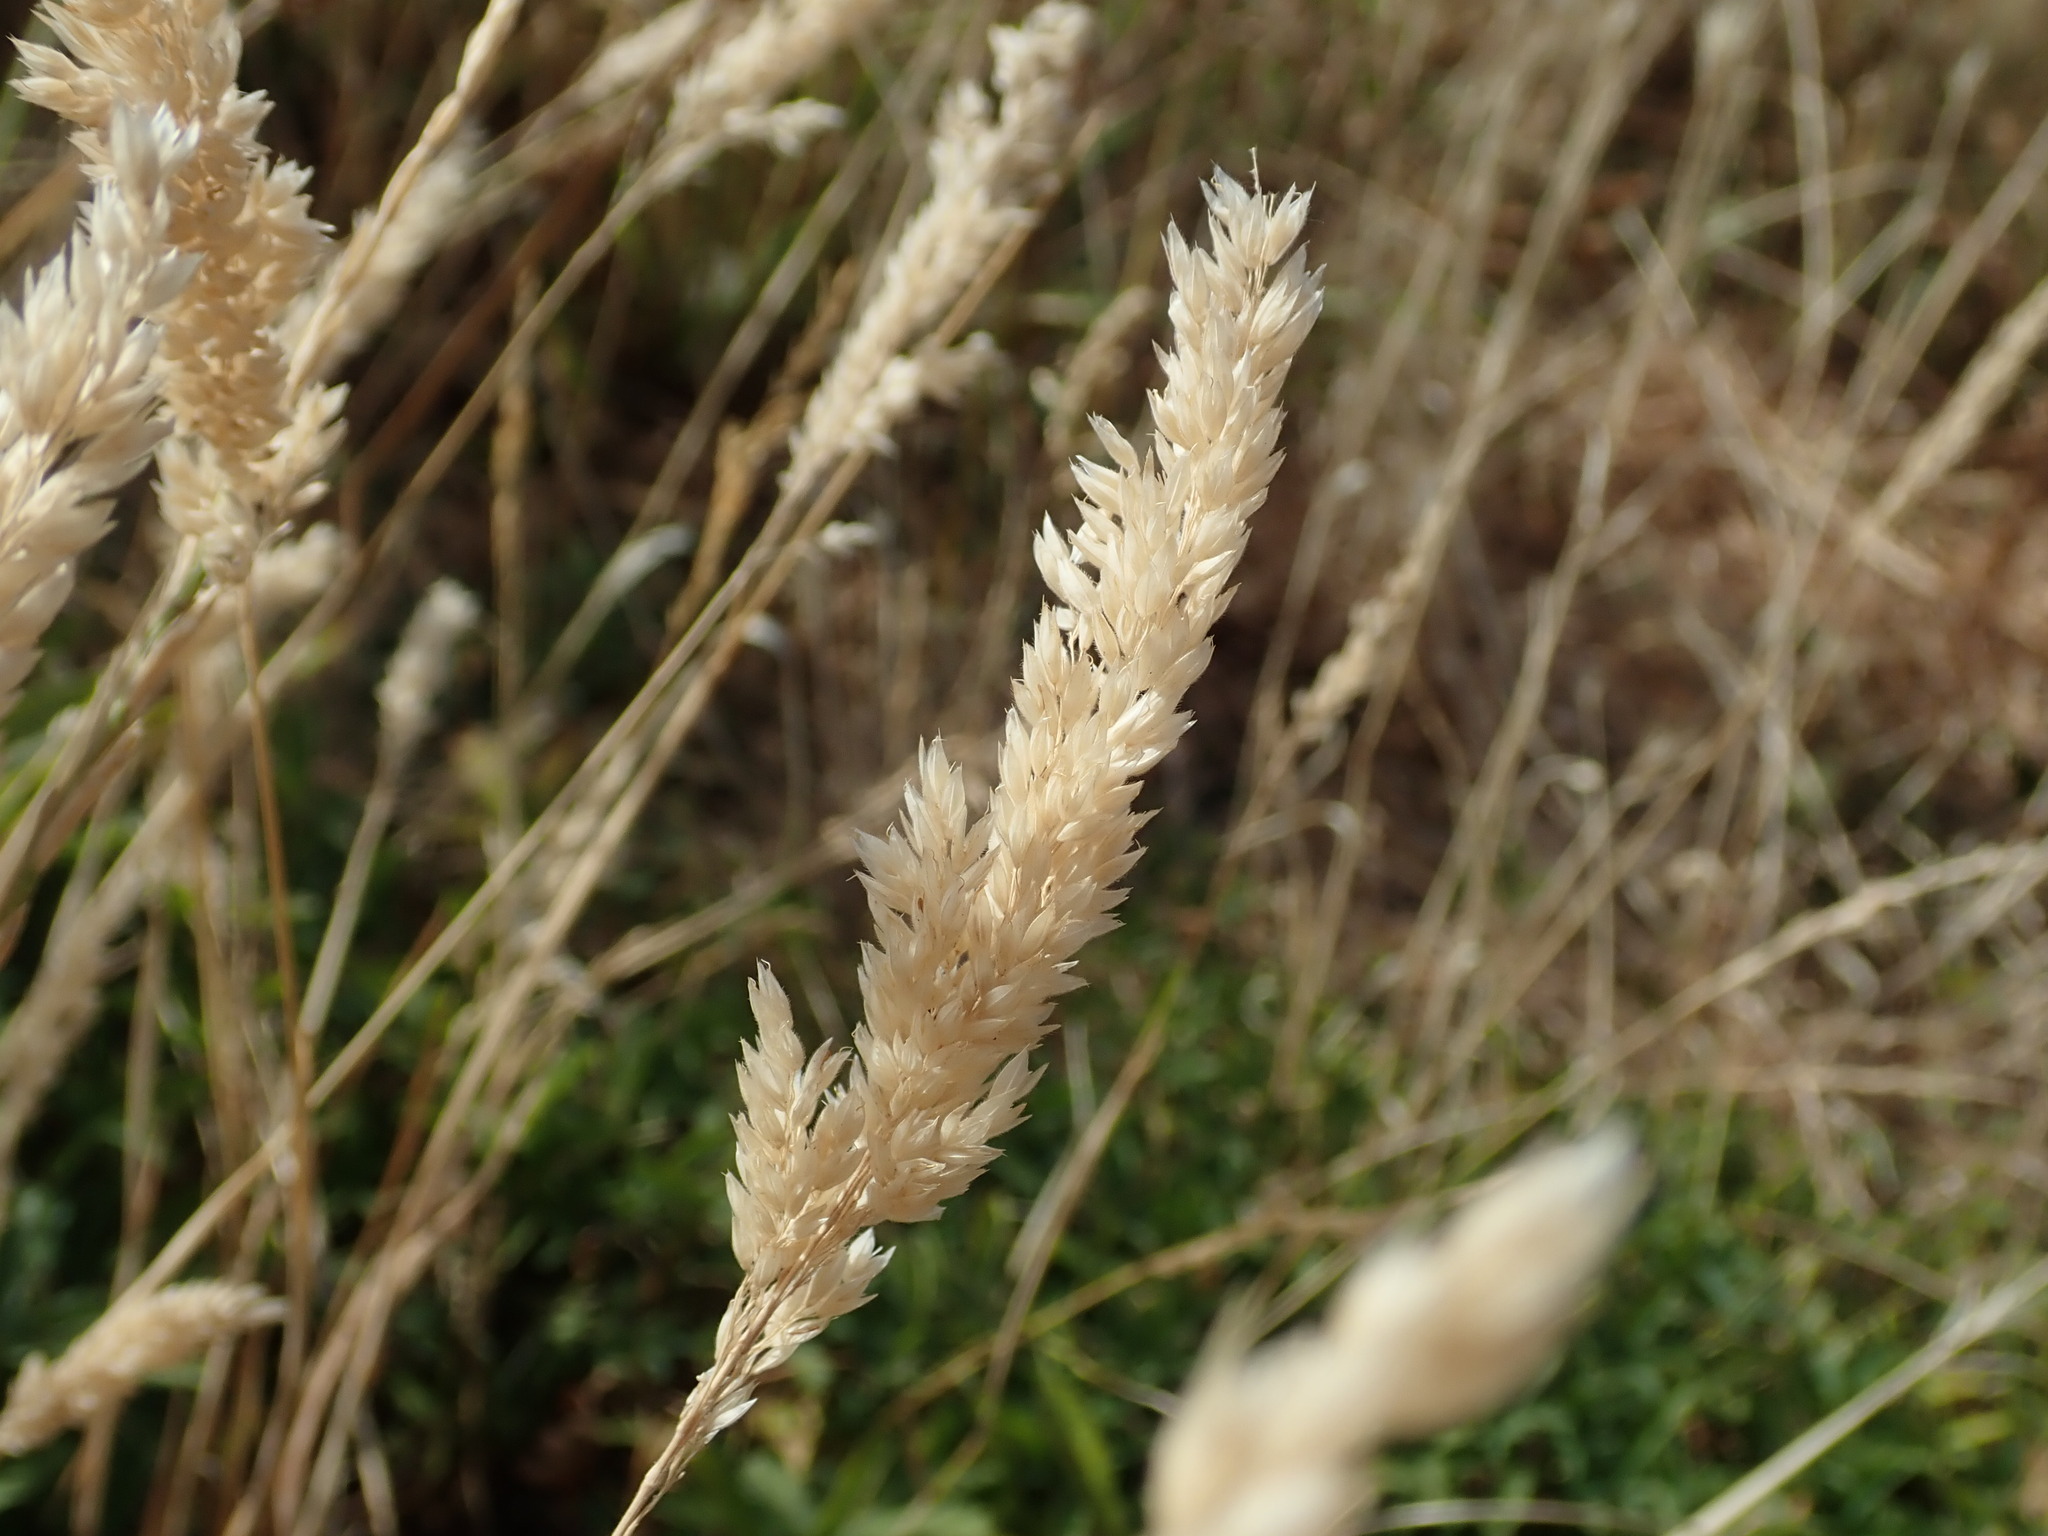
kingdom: Plantae
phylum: Tracheophyta
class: Liliopsida
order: Poales
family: Poaceae
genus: Holcus
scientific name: Holcus lanatus
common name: Yorkshire-fog
